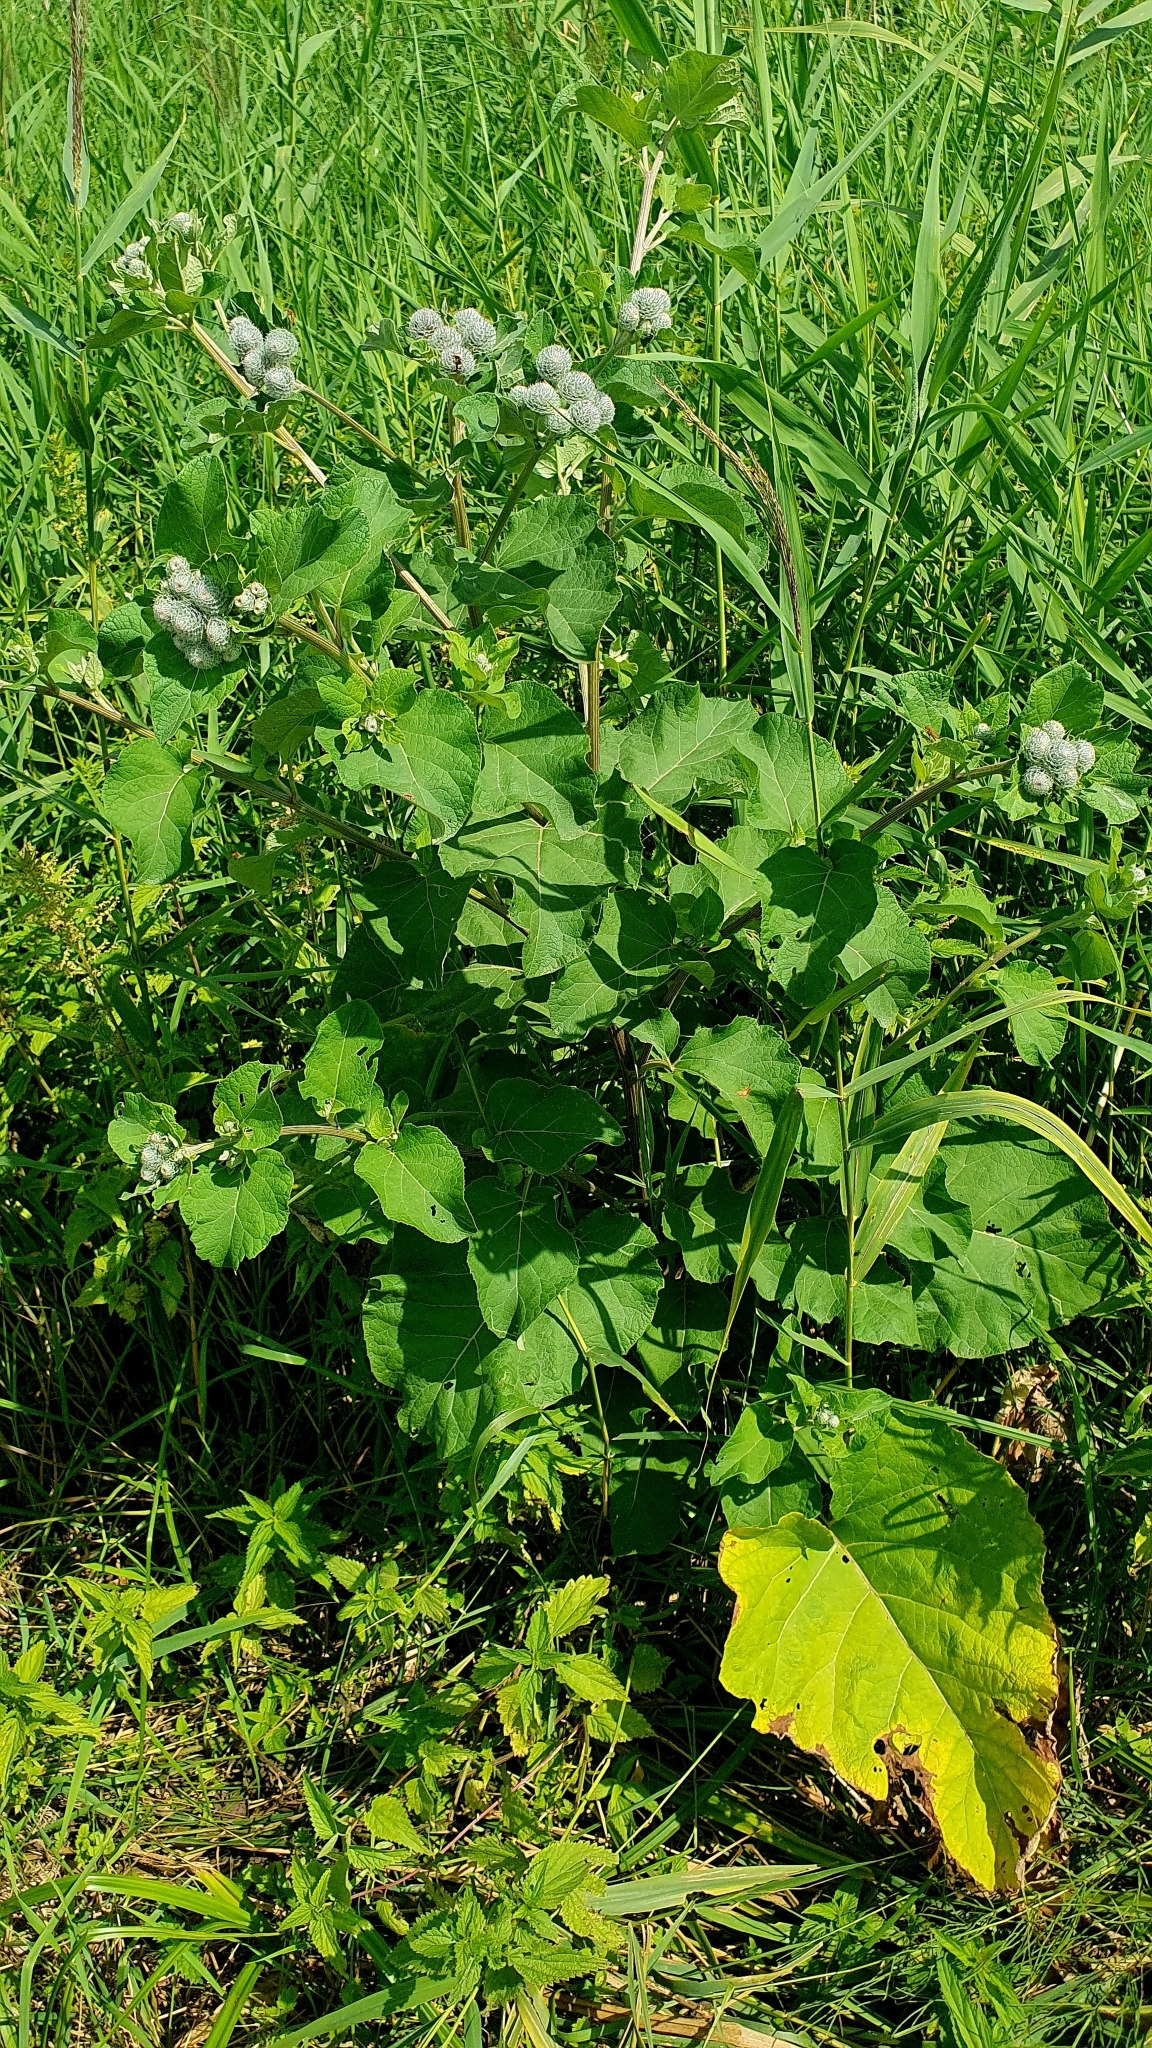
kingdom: Plantae
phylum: Tracheophyta
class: Magnoliopsida
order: Asterales
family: Asteraceae
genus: Arctium
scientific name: Arctium tomentosum
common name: Woolly burdock
